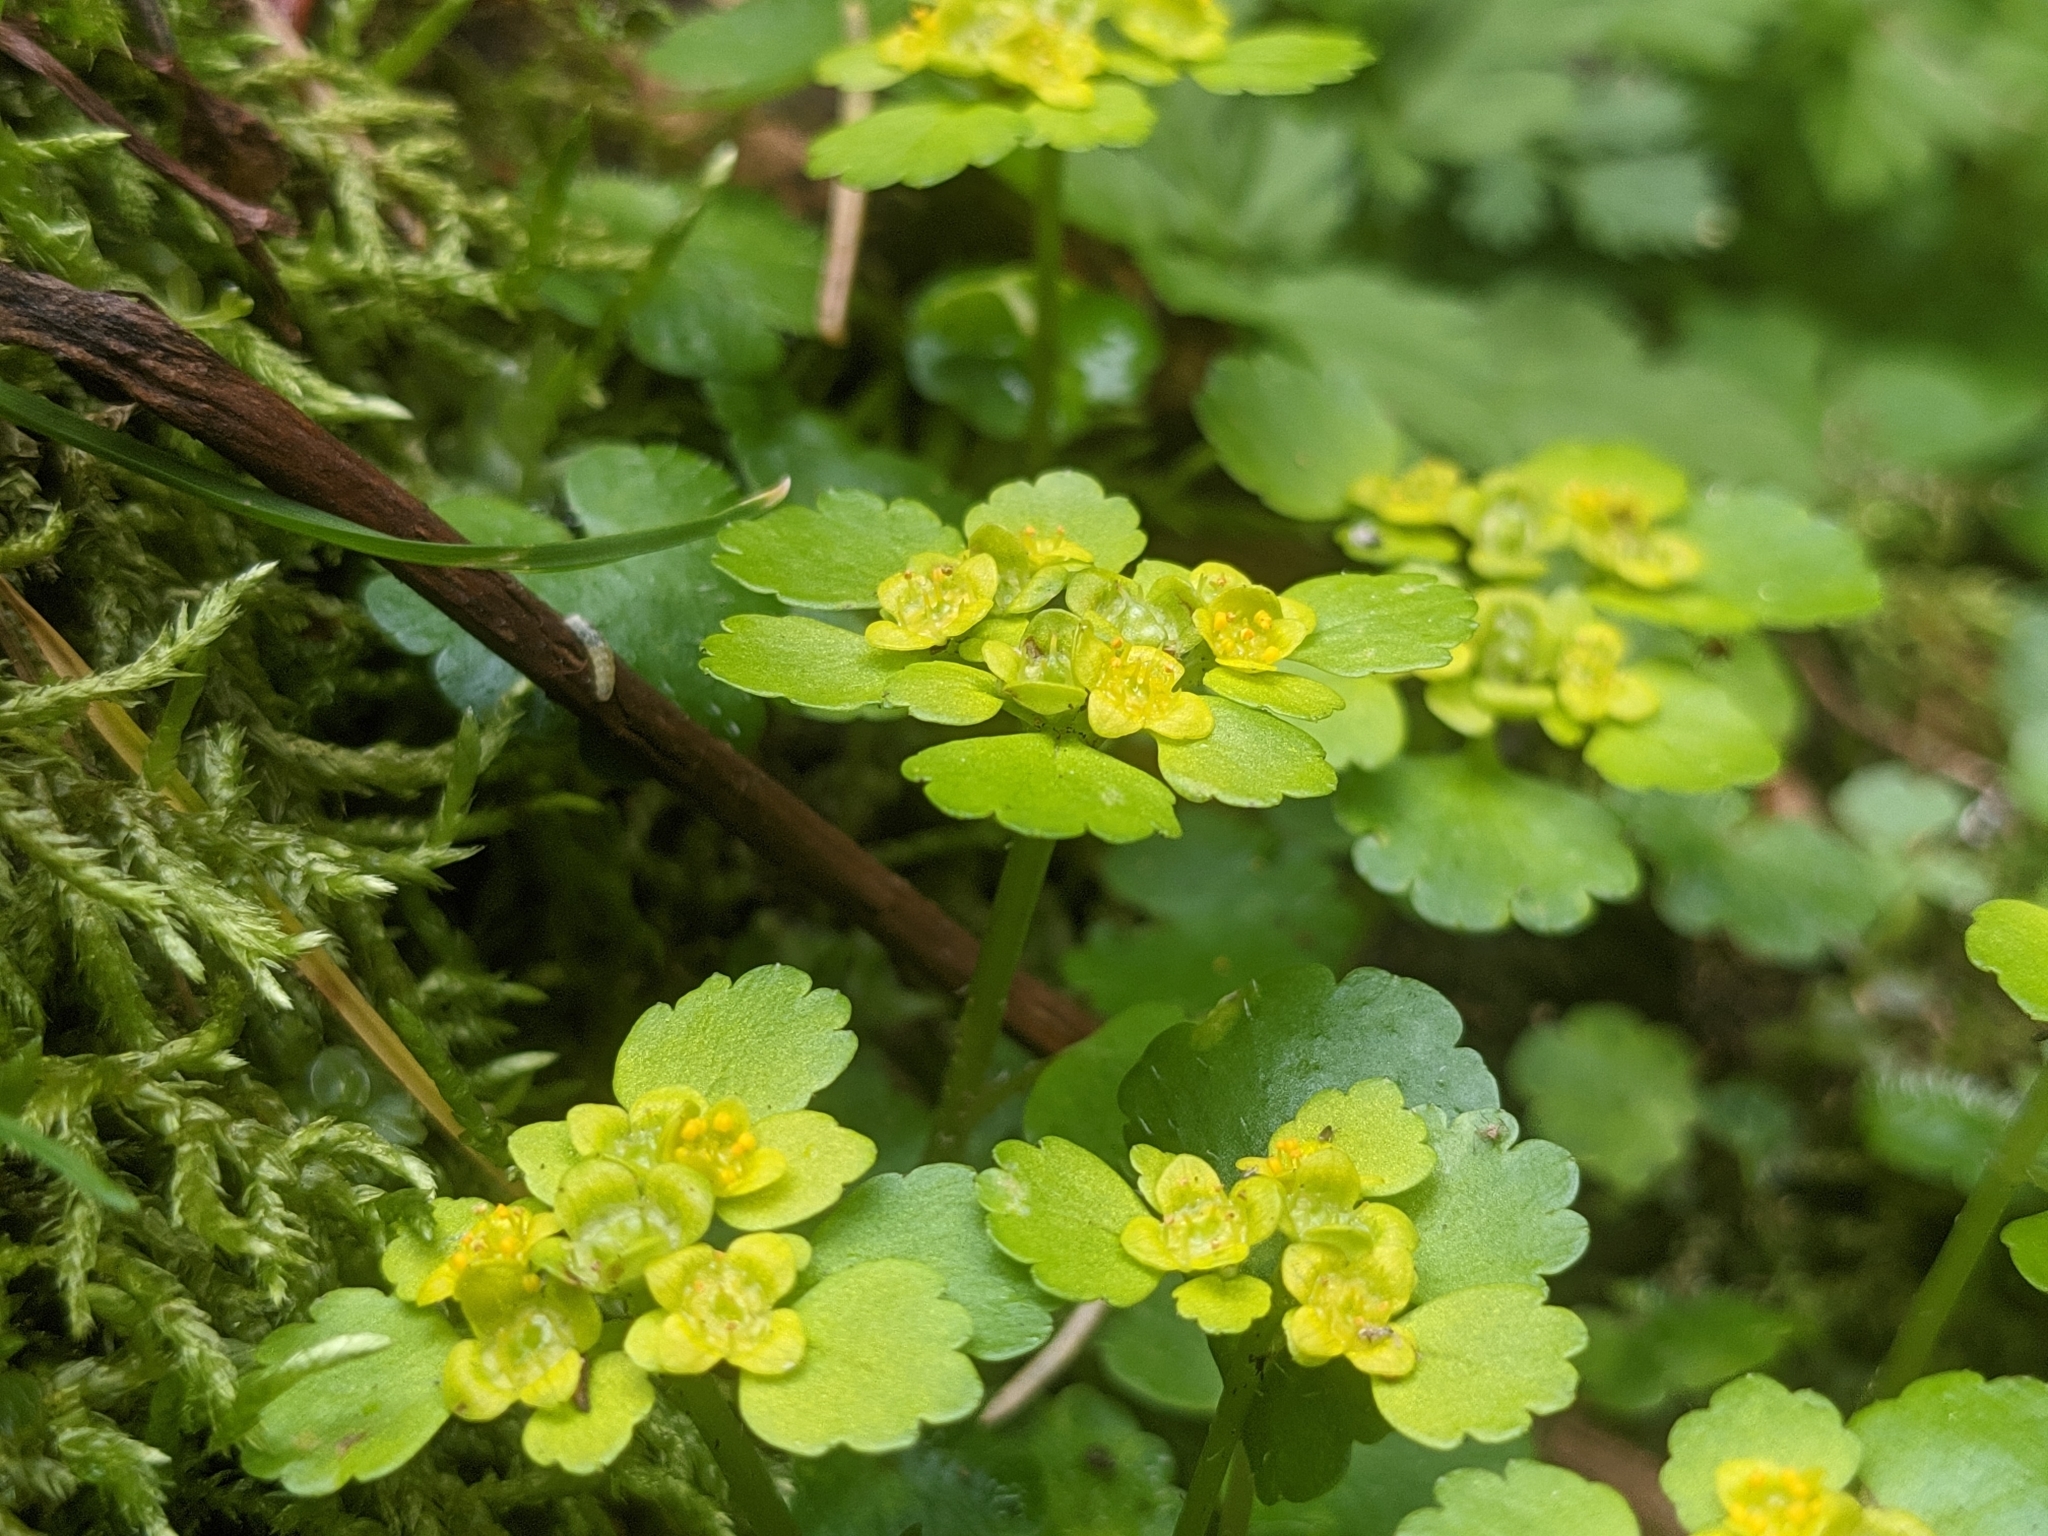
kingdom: Plantae
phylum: Tracheophyta
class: Magnoliopsida
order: Saxifragales
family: Saxifragaceae
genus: Chrysosplenium
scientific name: Chrysosplenium alternifolium
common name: Alternate-leaved golden-saxifrage
